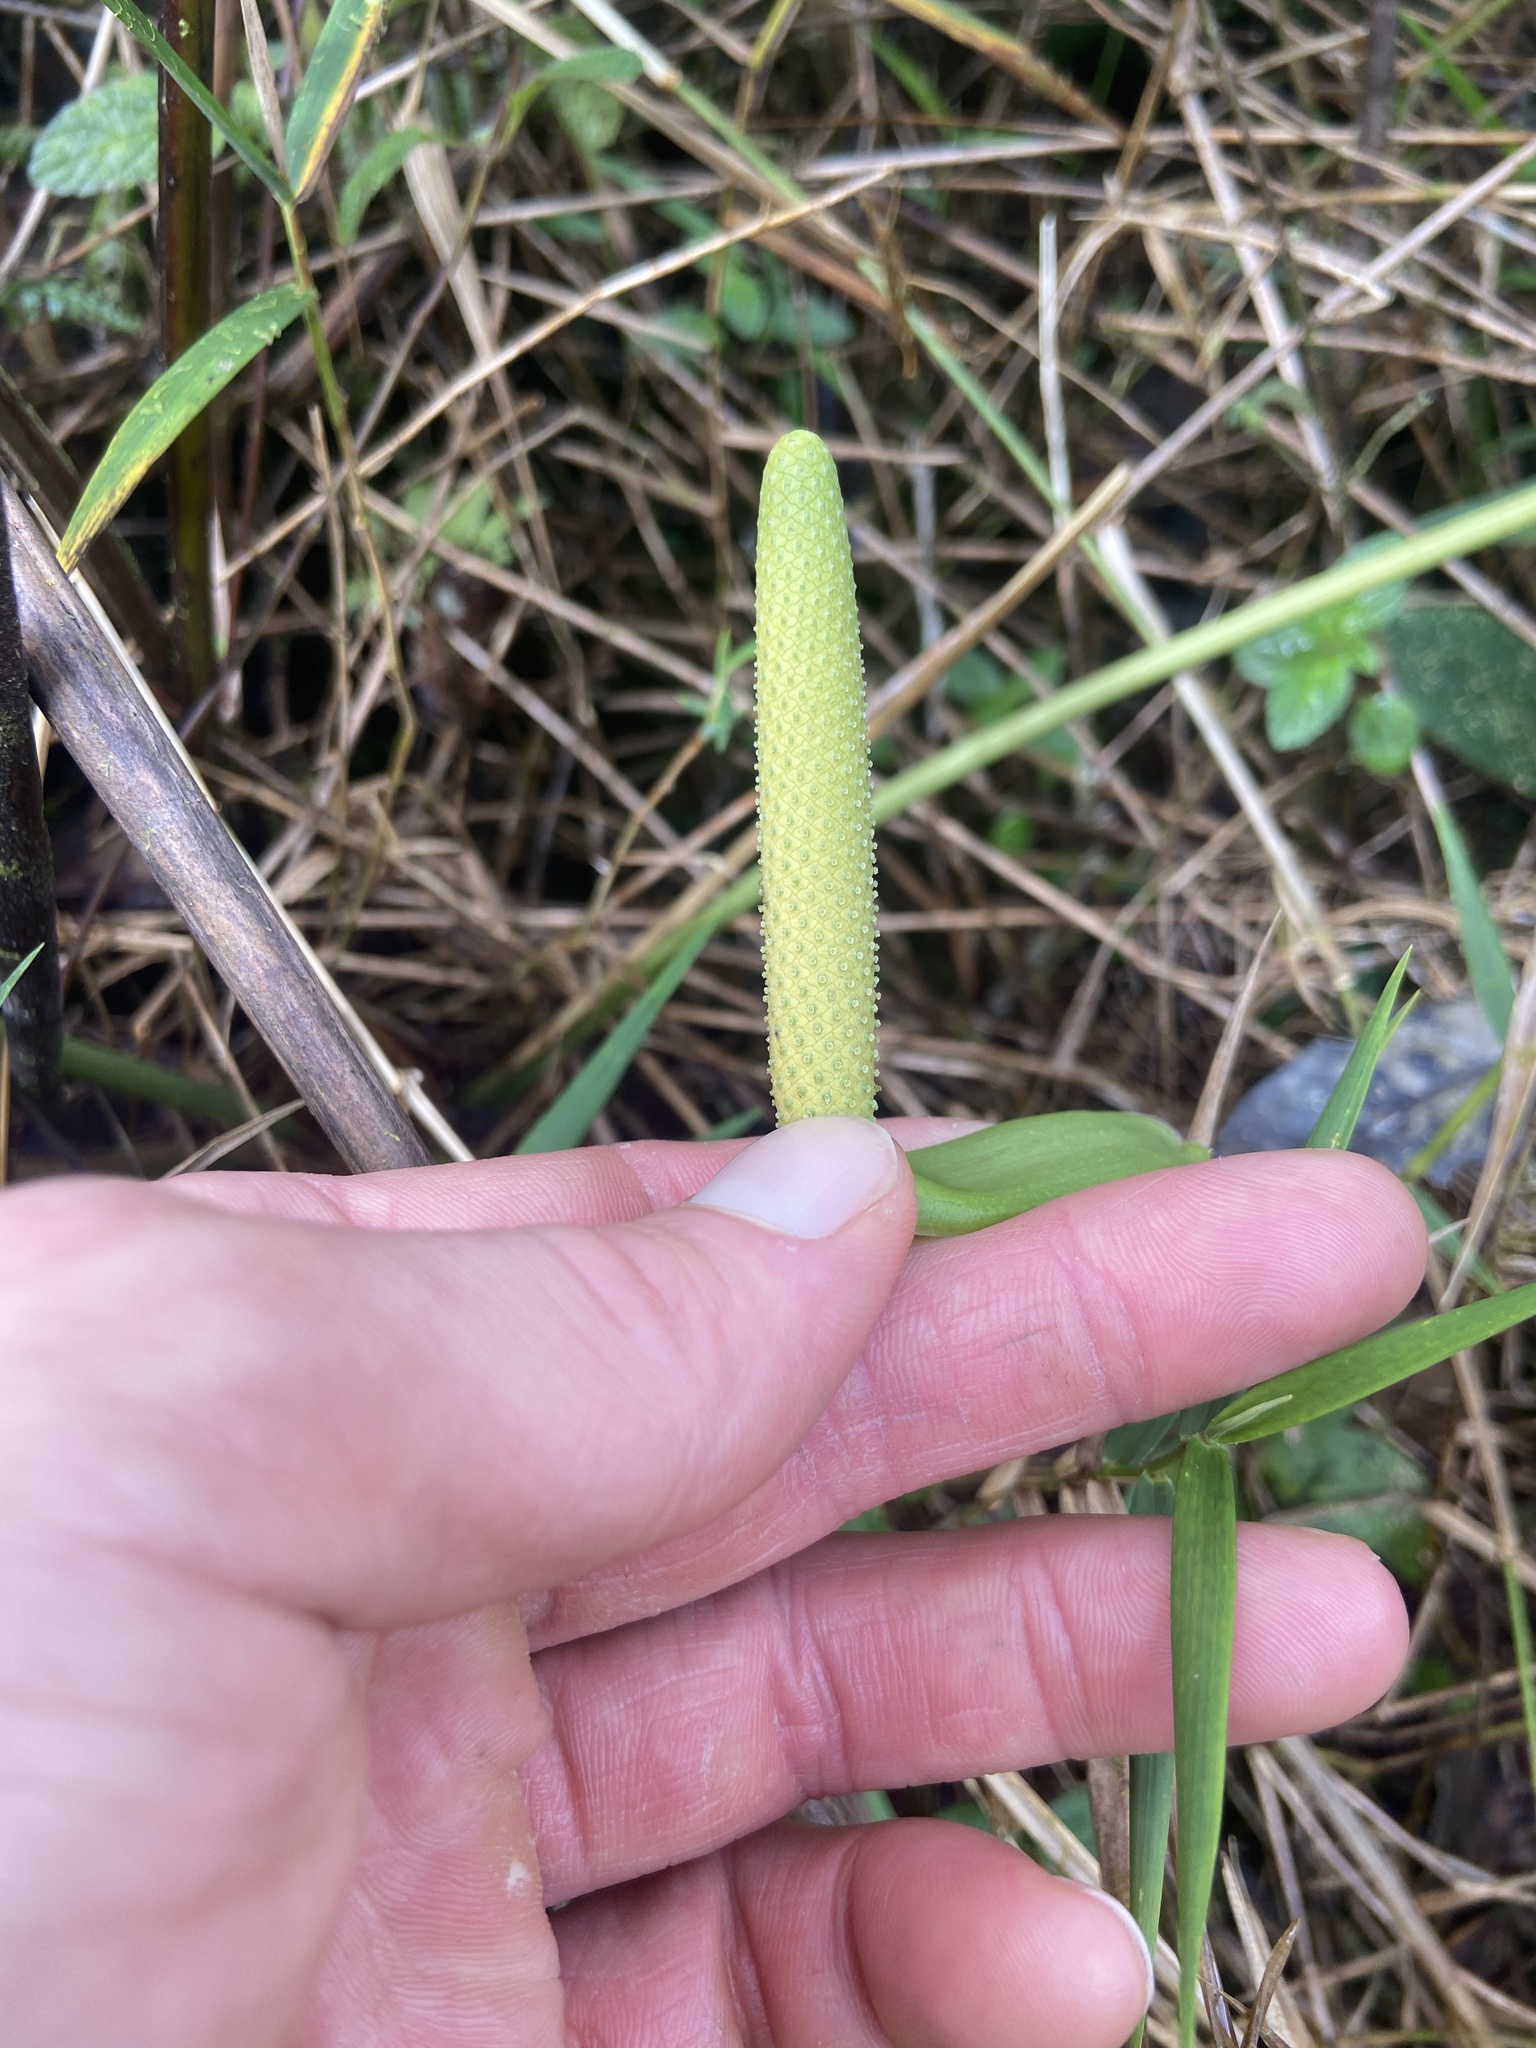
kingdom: Plantae
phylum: Tracheophyta
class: Liliopsida
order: Alismatales
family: Araceae
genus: Anthurium
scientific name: Anthurium dominicense
